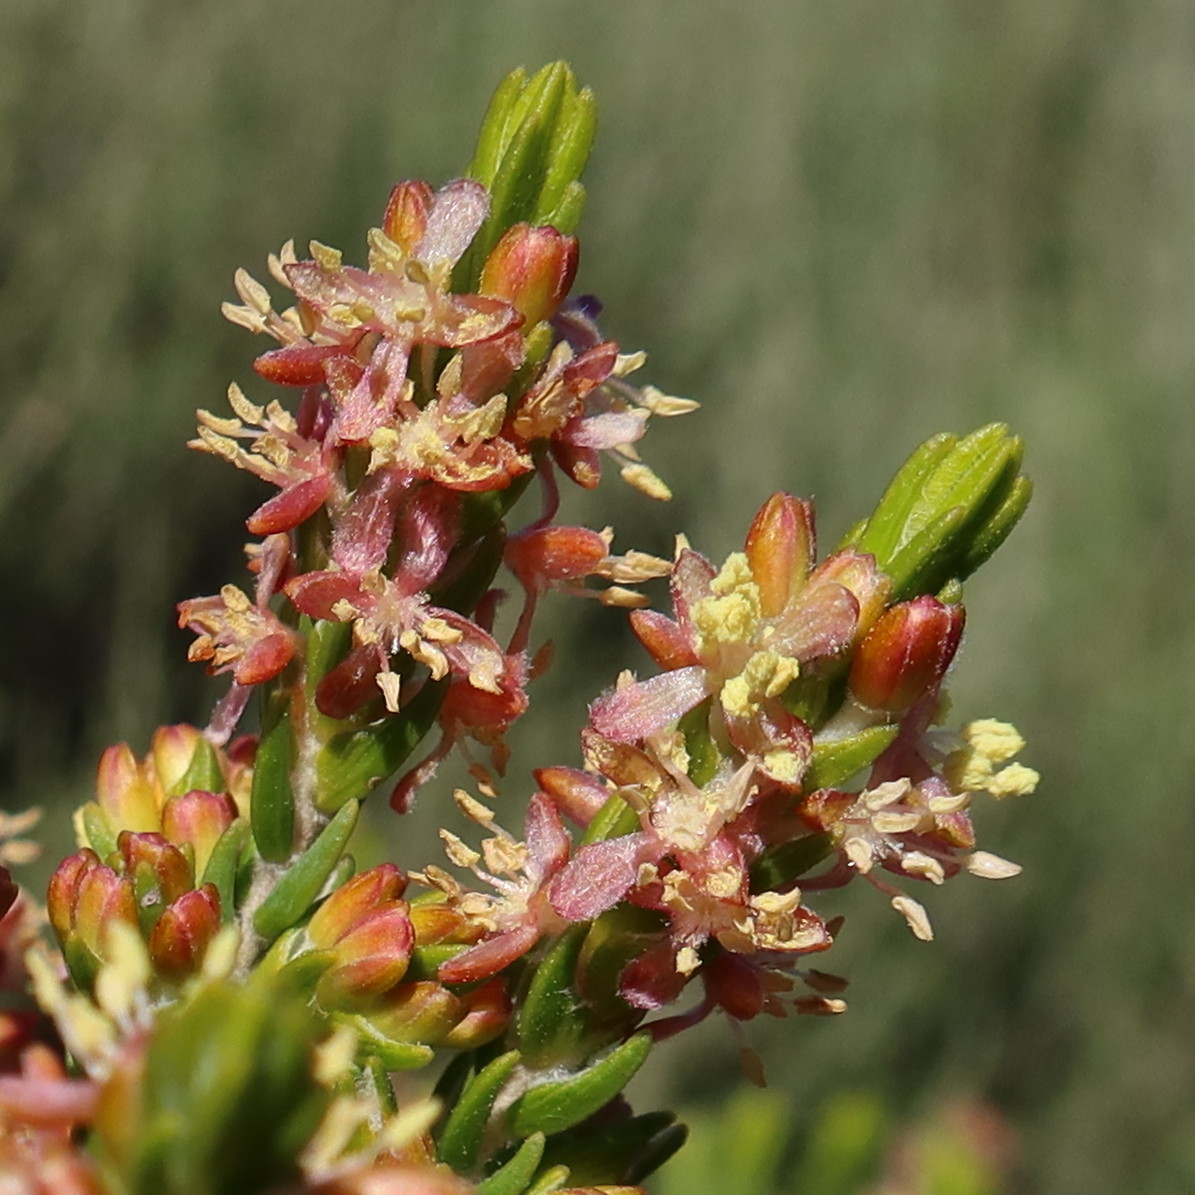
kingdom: Plantae
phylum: Tracheophyta
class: Magnoliopsida
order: Malvales
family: Thymelaeaceae
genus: Passerina
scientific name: Passerina corymbosa
